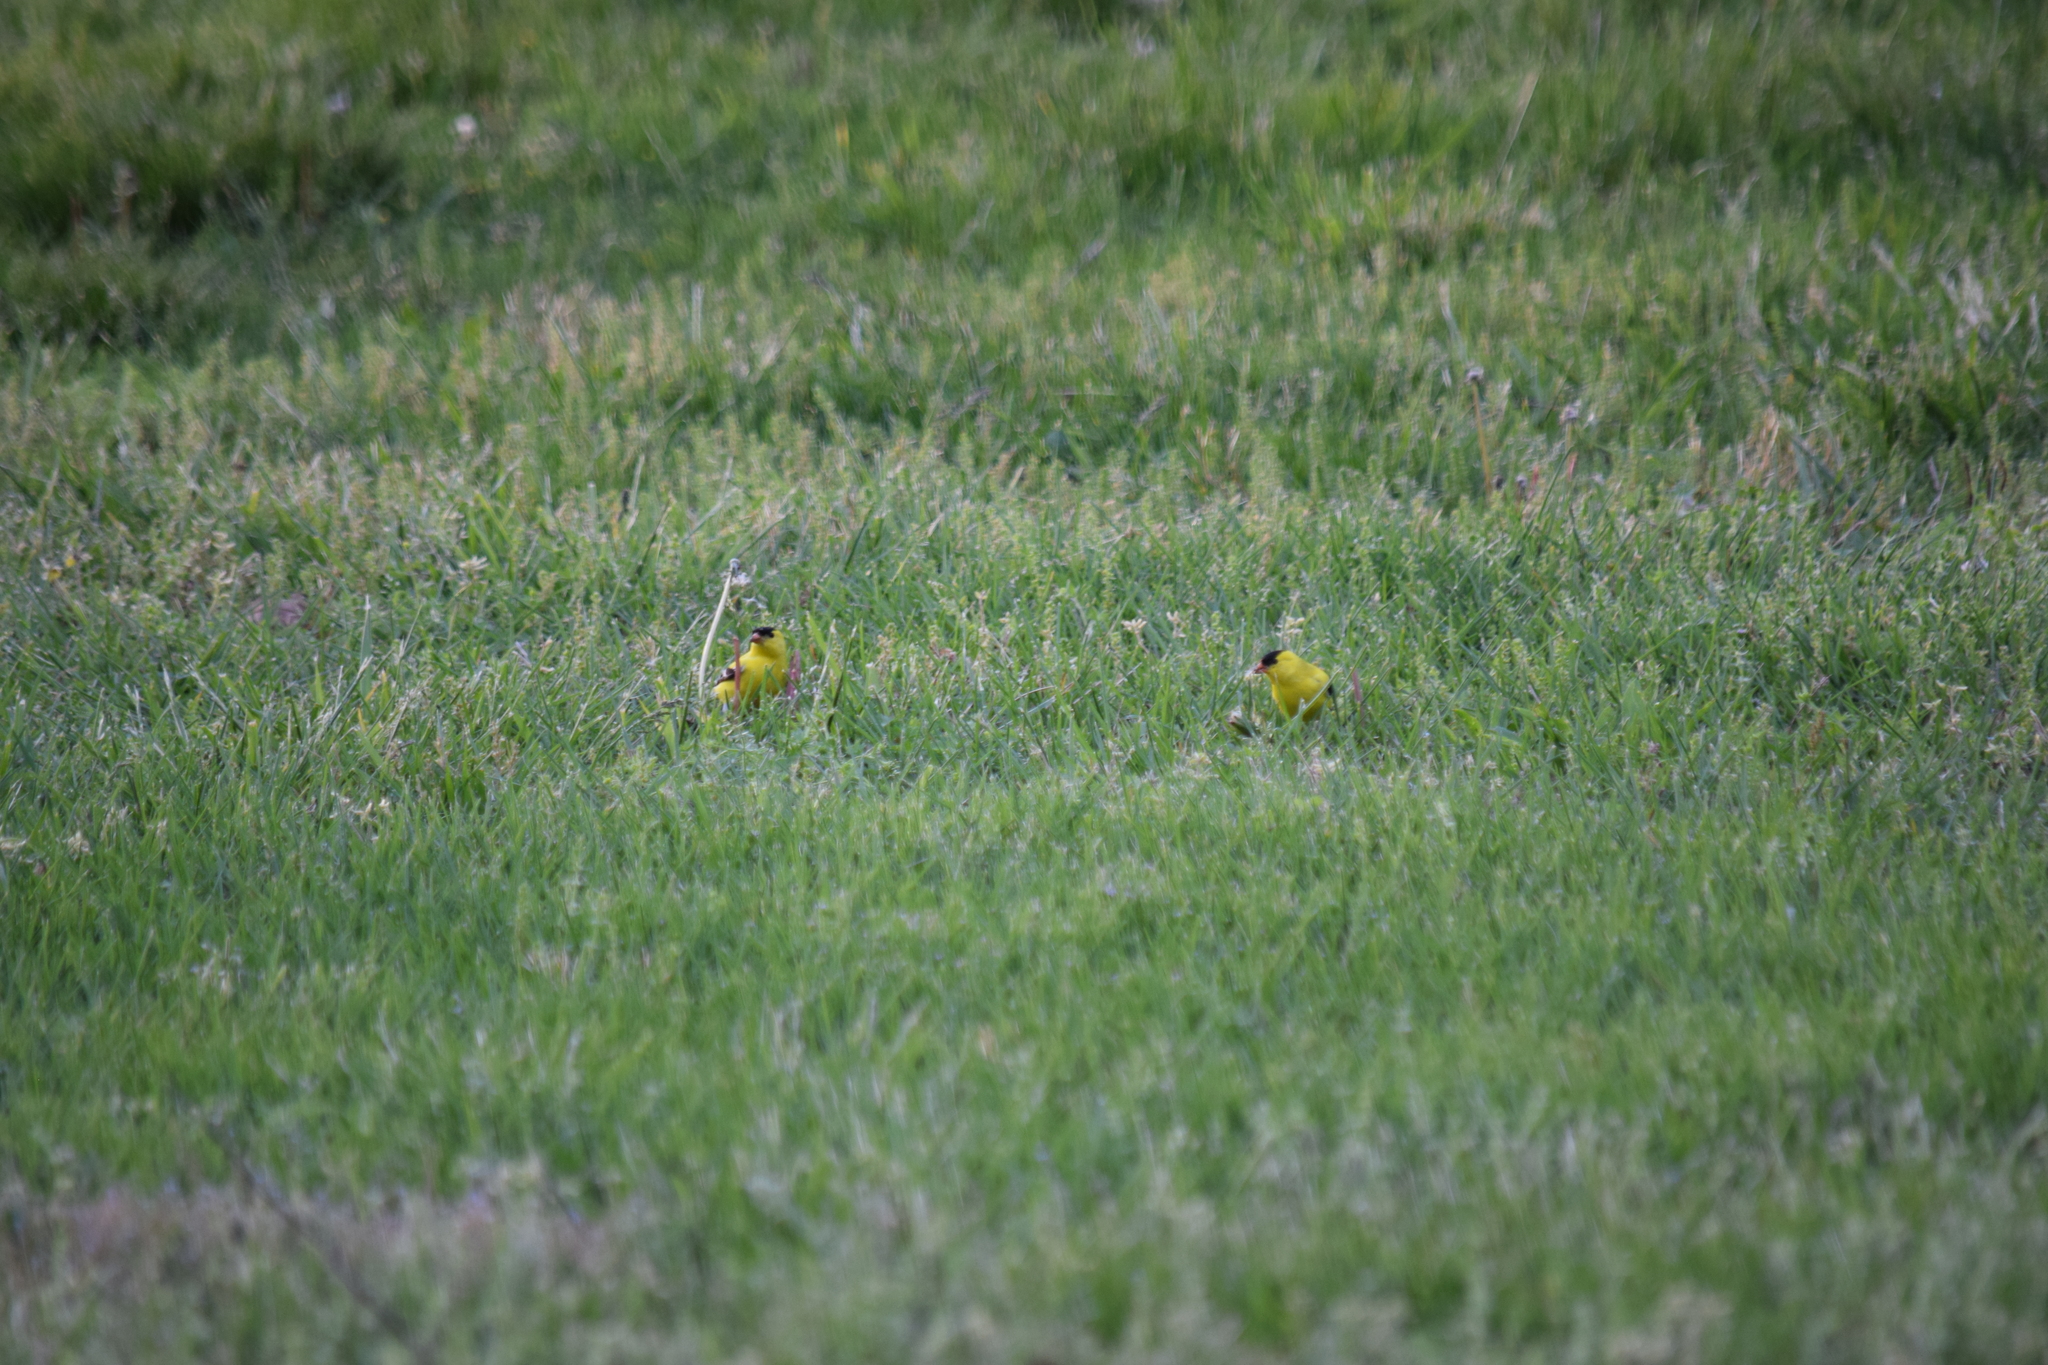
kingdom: Animalia
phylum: Chordata
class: Aves
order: Passeriformes
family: Fringillidae
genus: Spinus
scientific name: Spinus tristis
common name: American goldfinch
